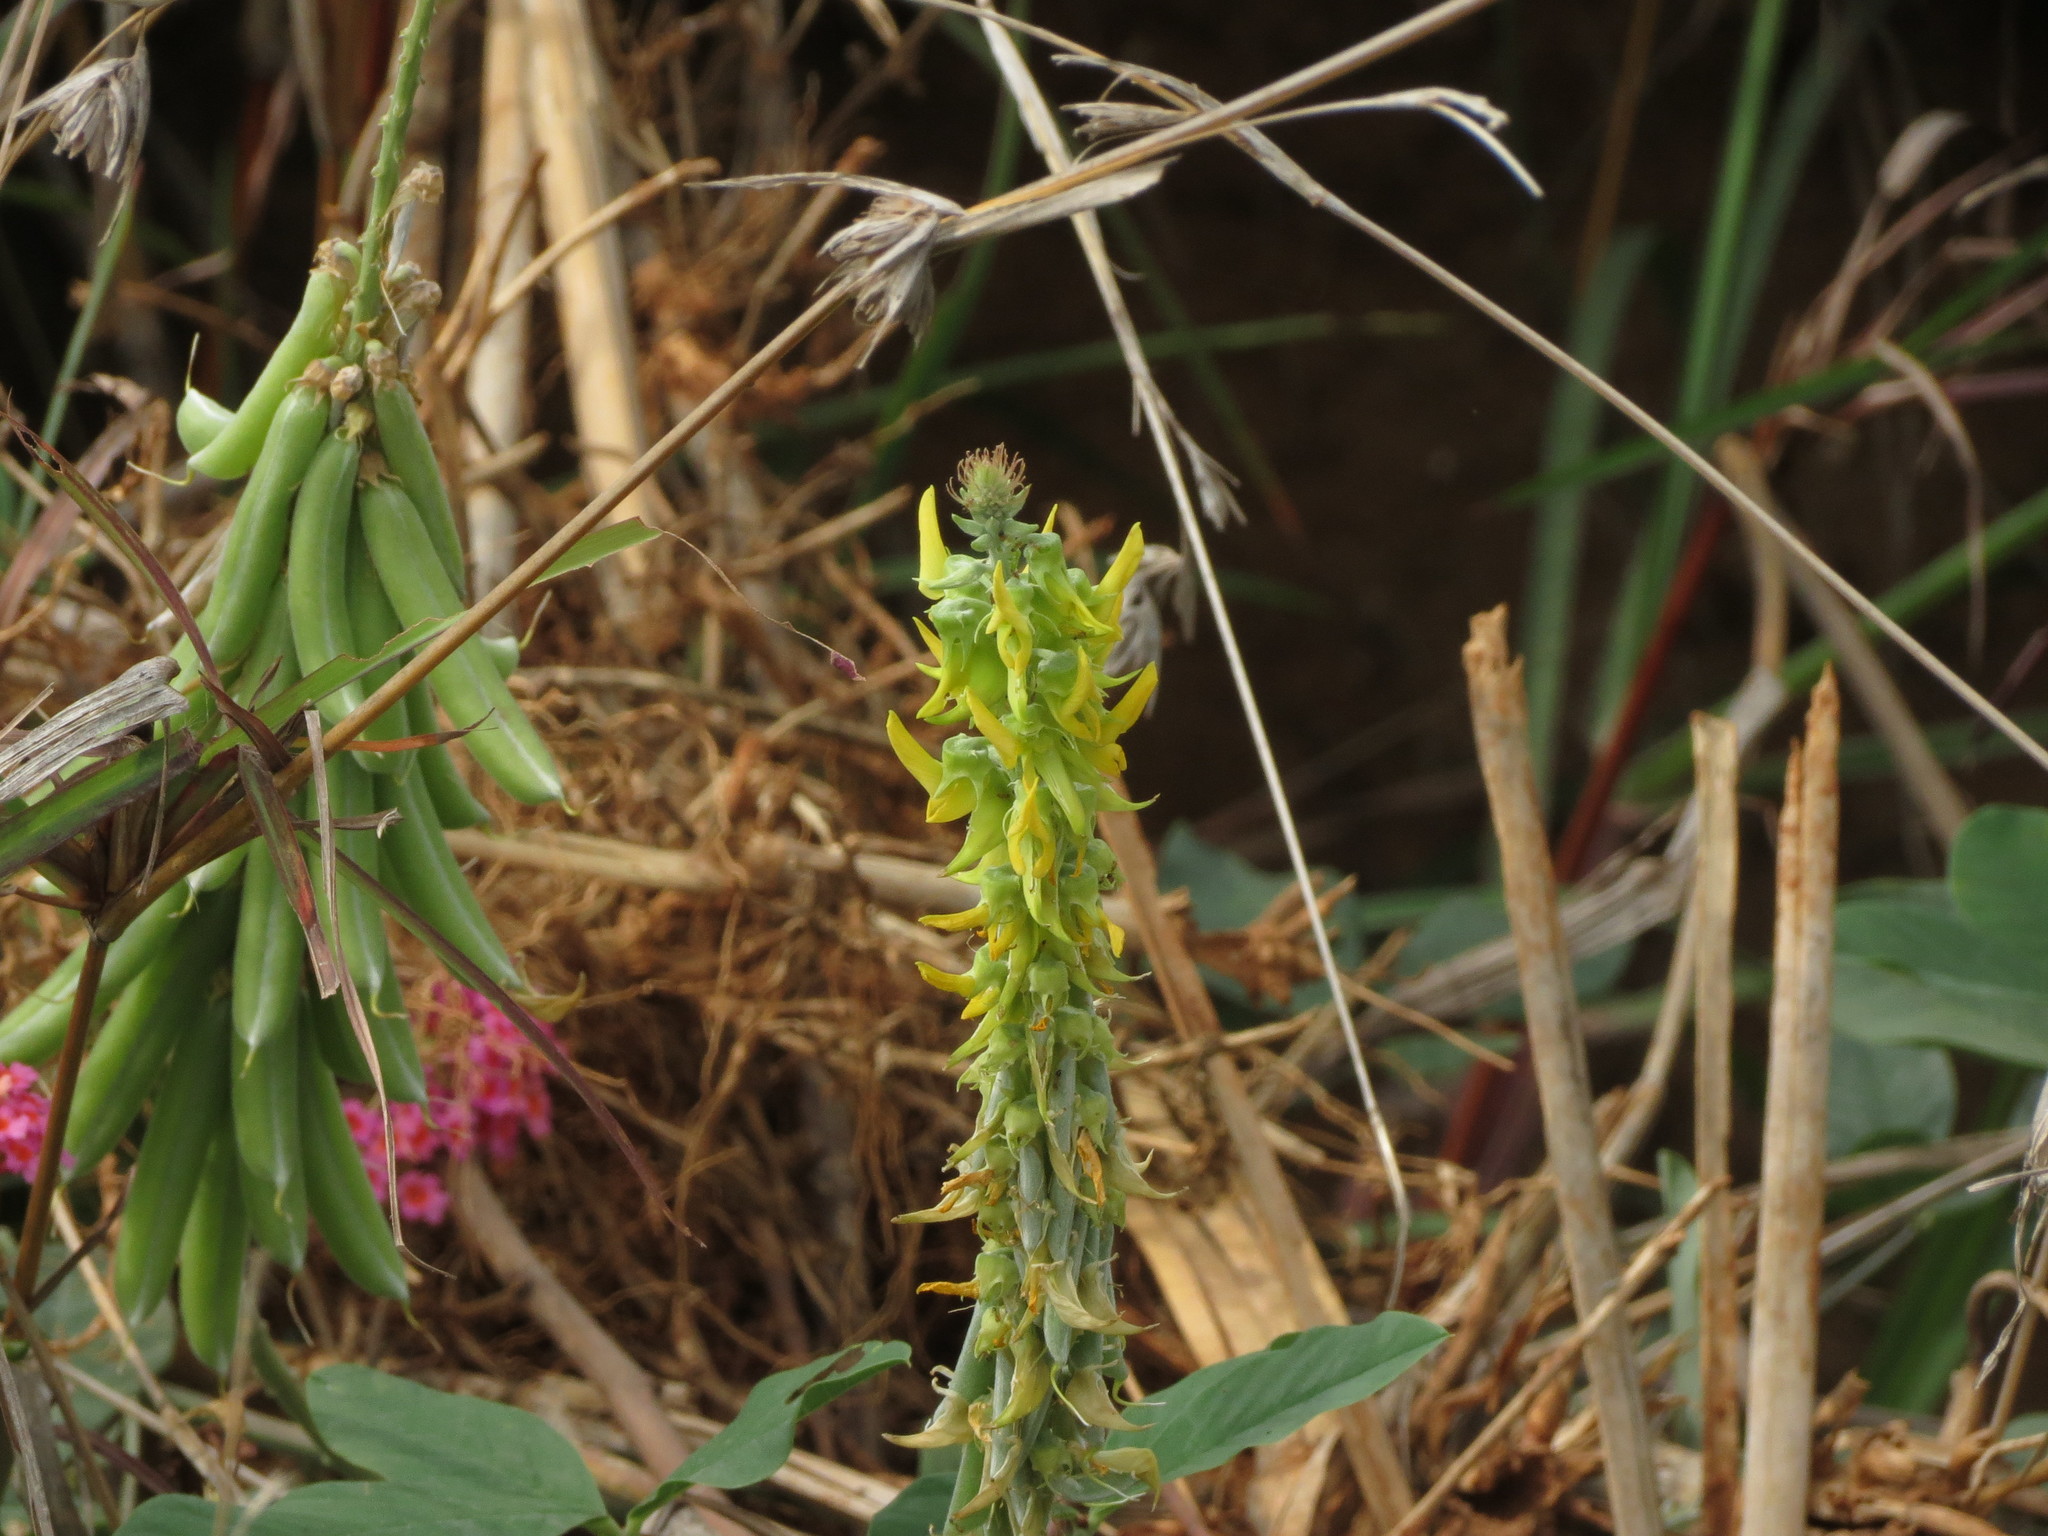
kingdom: Plantae
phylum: Tracheophyta
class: Magnoliopsida
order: Fabales
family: Fabaceae
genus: Crotalaria
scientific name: Crotalaria pallida
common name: Smooth rattlebox
